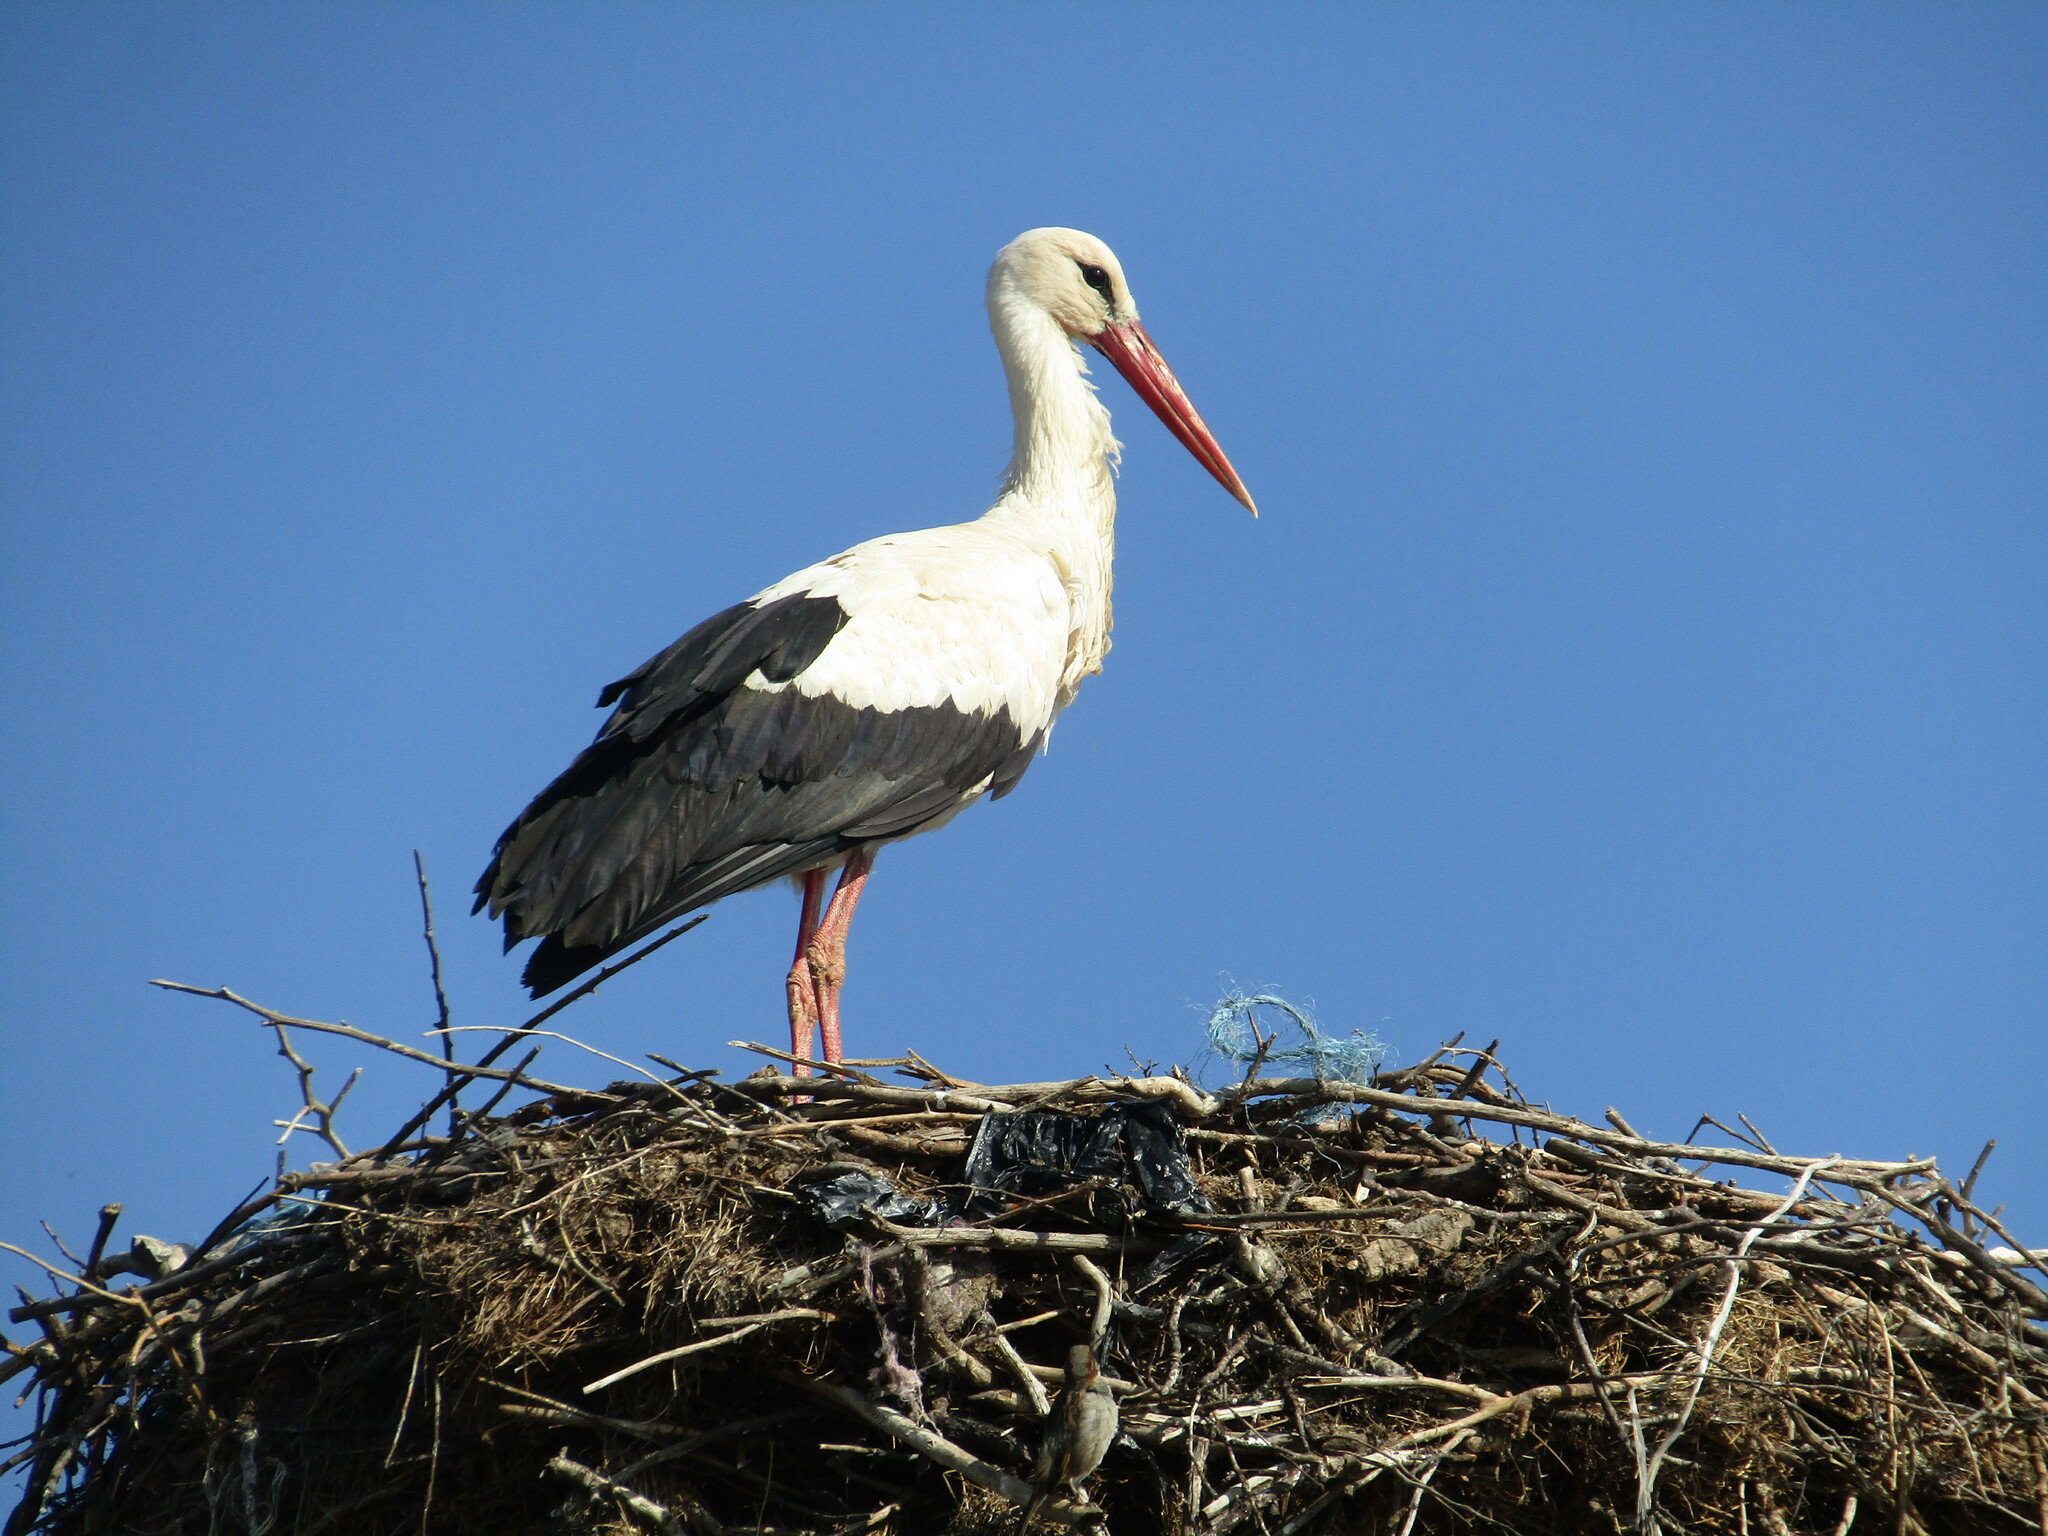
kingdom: Animalia
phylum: Chordata
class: Aves
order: Ciconiiformes
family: Ciconiidae
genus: Ciconia
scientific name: Ciconia ciconia
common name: White stork
